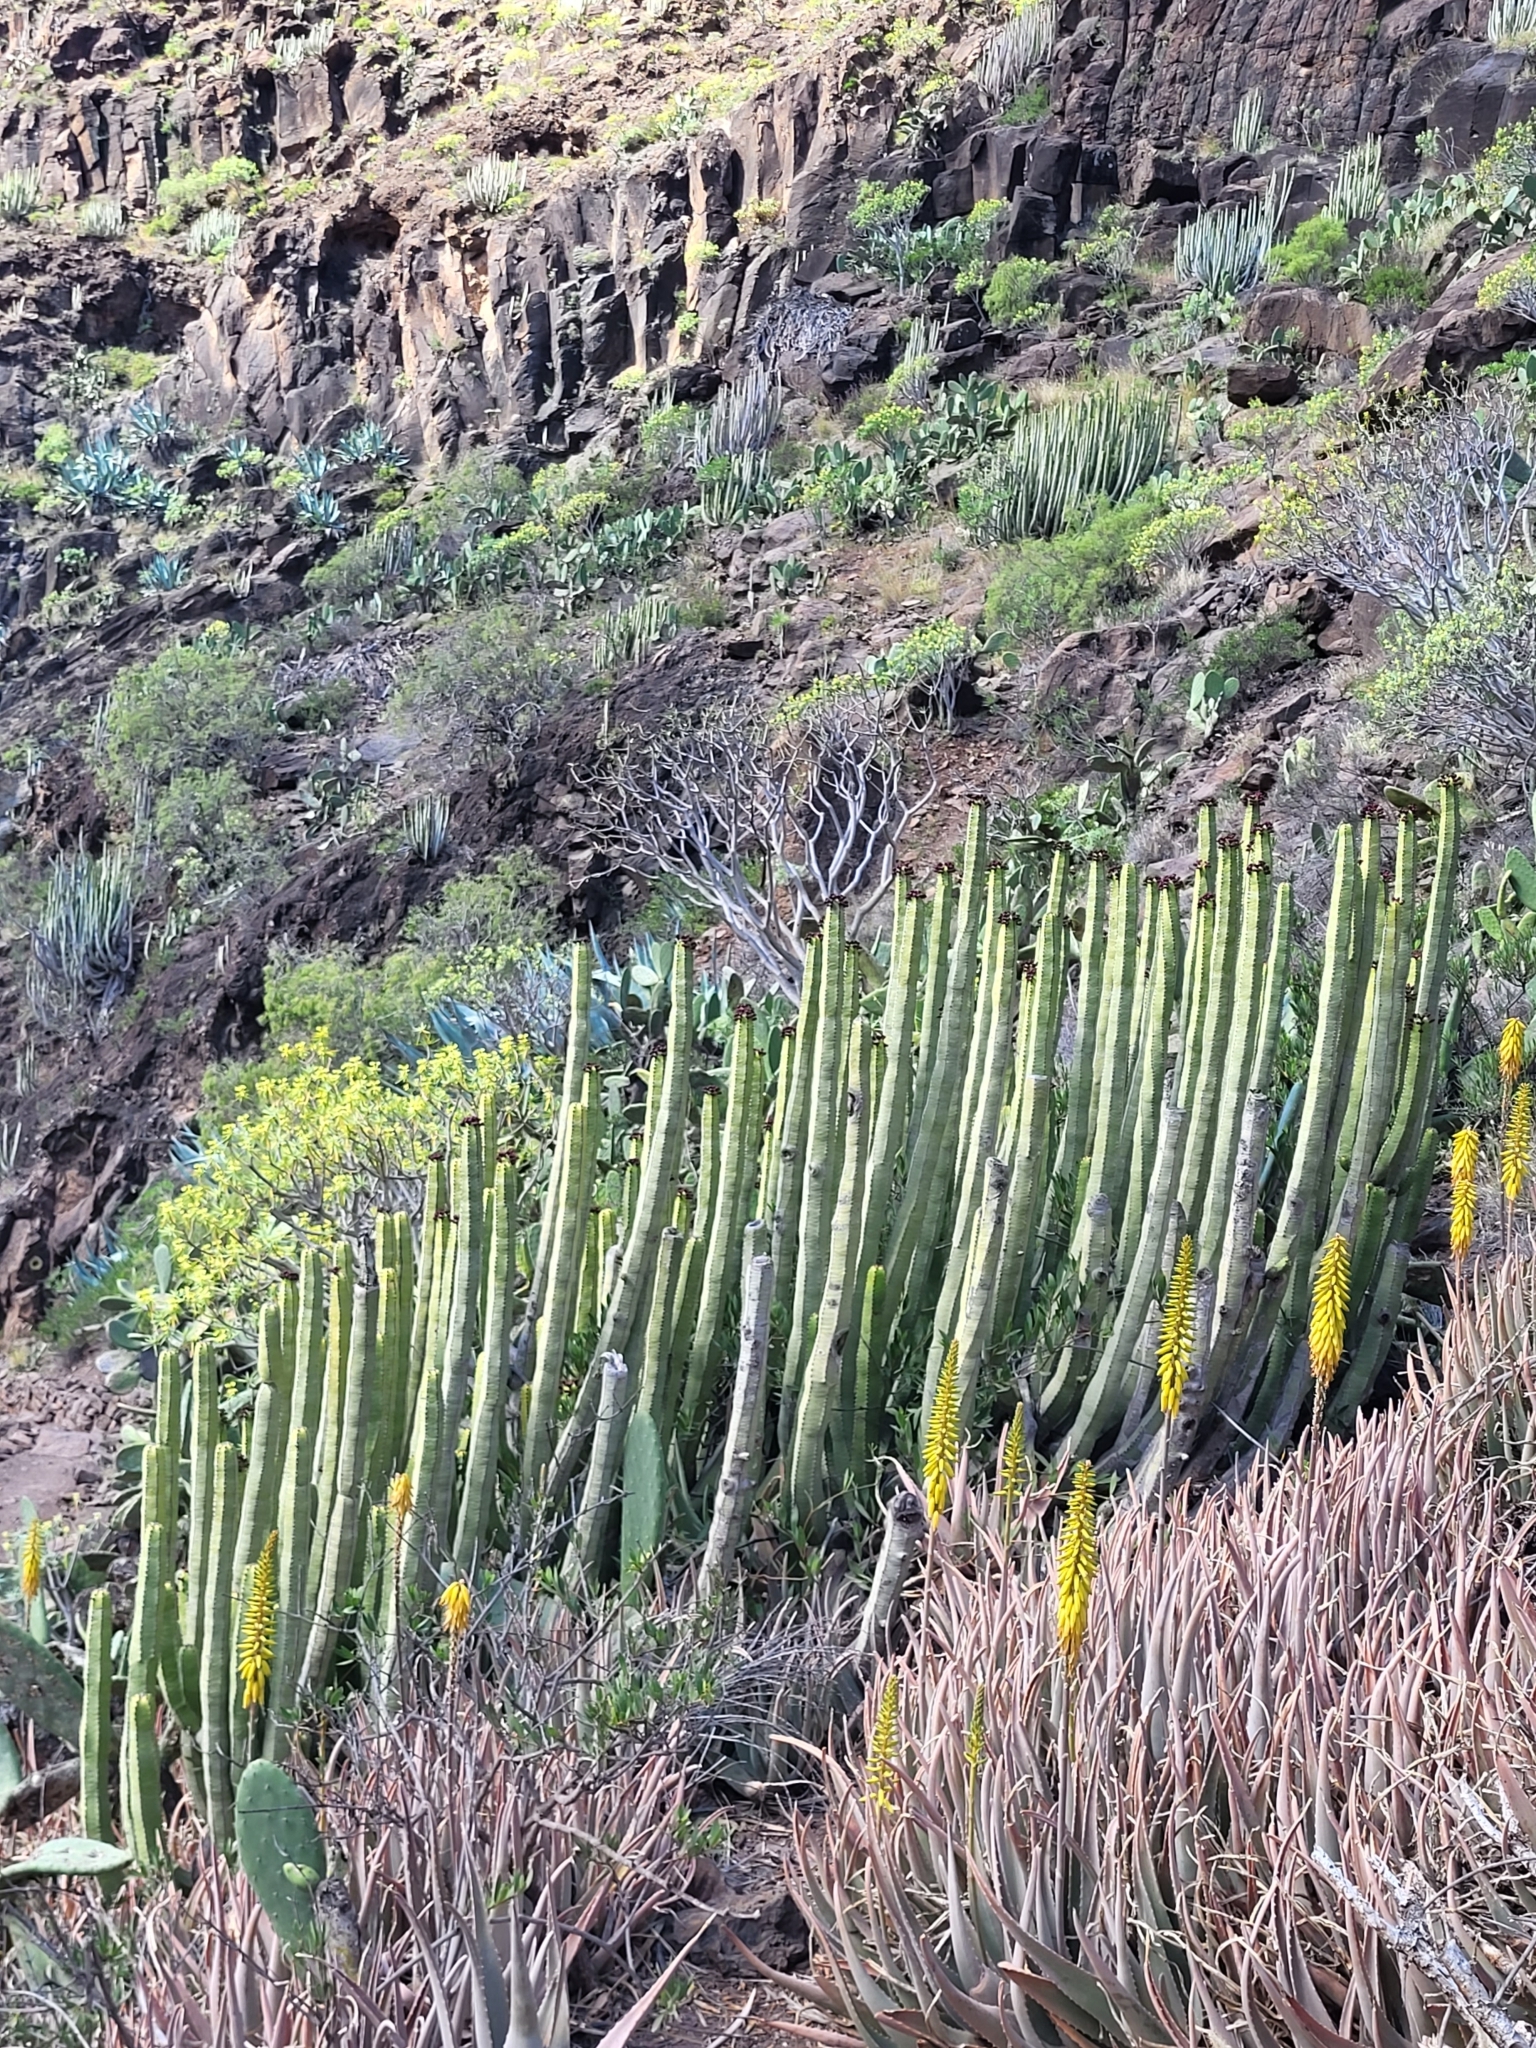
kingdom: Plantae
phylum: Tracheophyta
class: Magnoliopsida
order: Malpighiales
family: Euphorbiaceae
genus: Euphorbia
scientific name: Euphorbia canariensis
